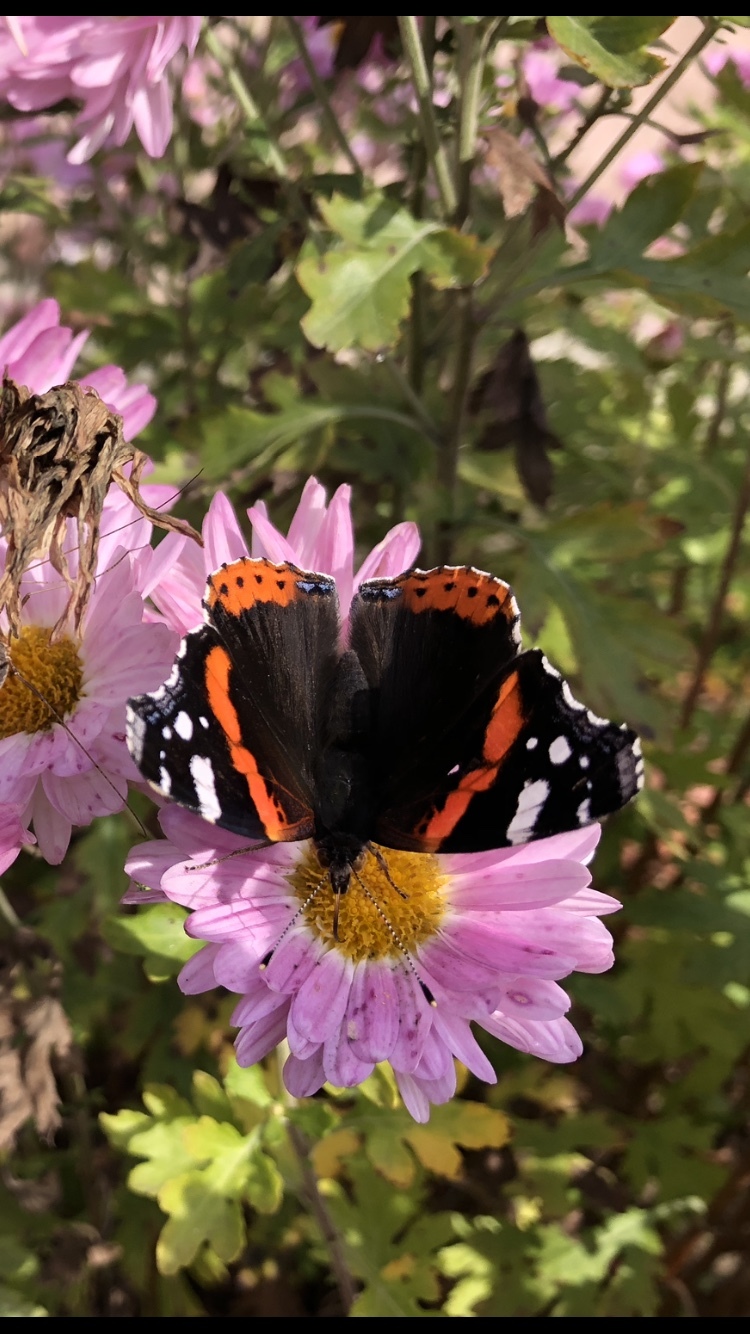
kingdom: Animalia
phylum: Arthropoda
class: Insecta
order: Lepidoptera
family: Nymphalidae
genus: Vanessa
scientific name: Vanessa atalanta
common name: Red admiral
